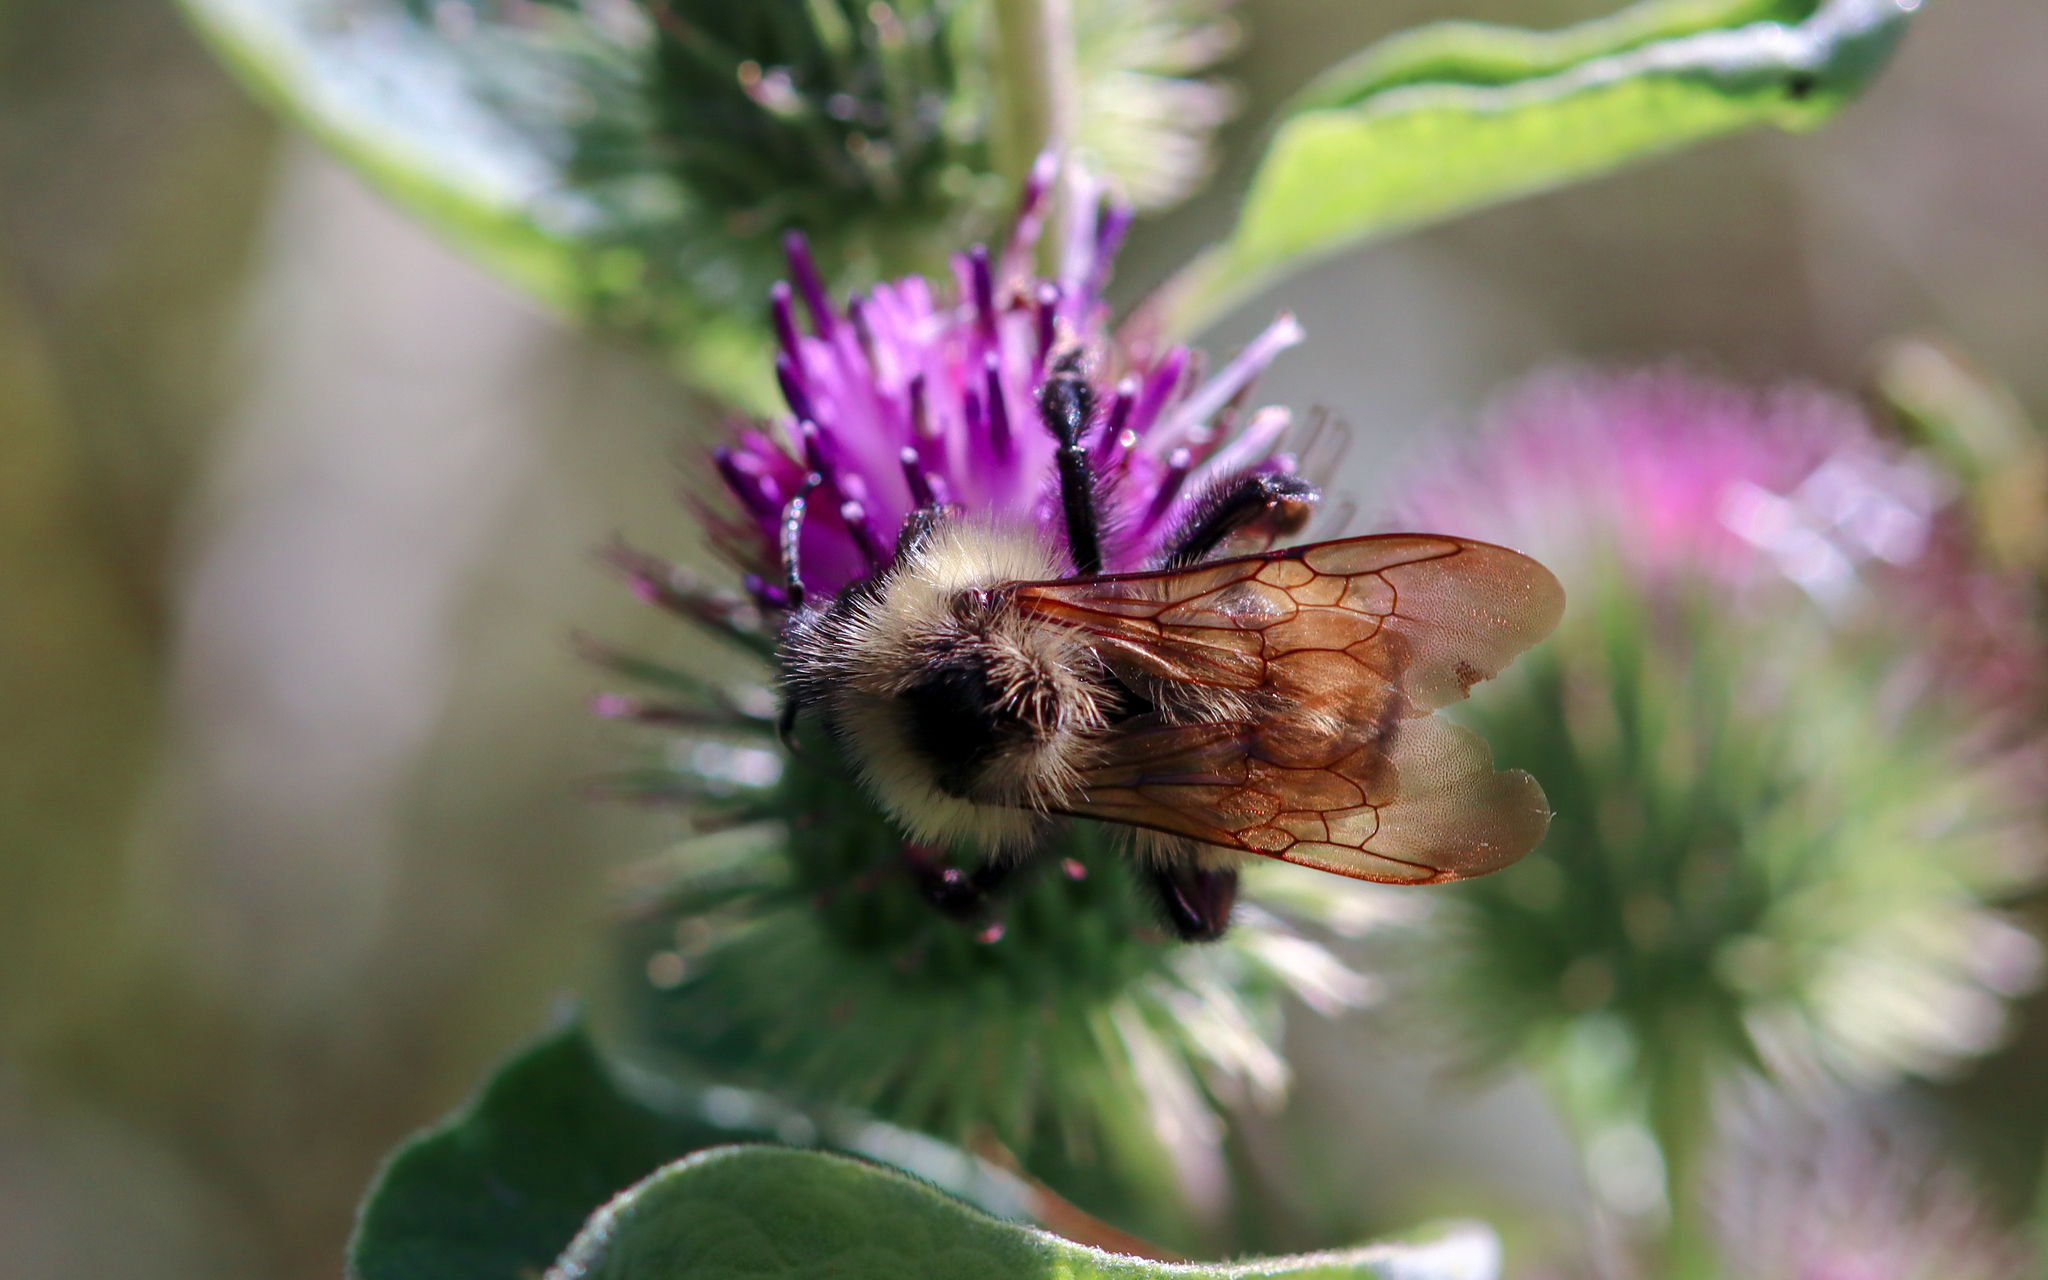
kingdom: Animalia
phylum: Arthropoda
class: Insecta
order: Hymenoptera
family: Apidae
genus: Bombus
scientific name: Bombus citrinus
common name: Lemon cuckoo bumble bee
